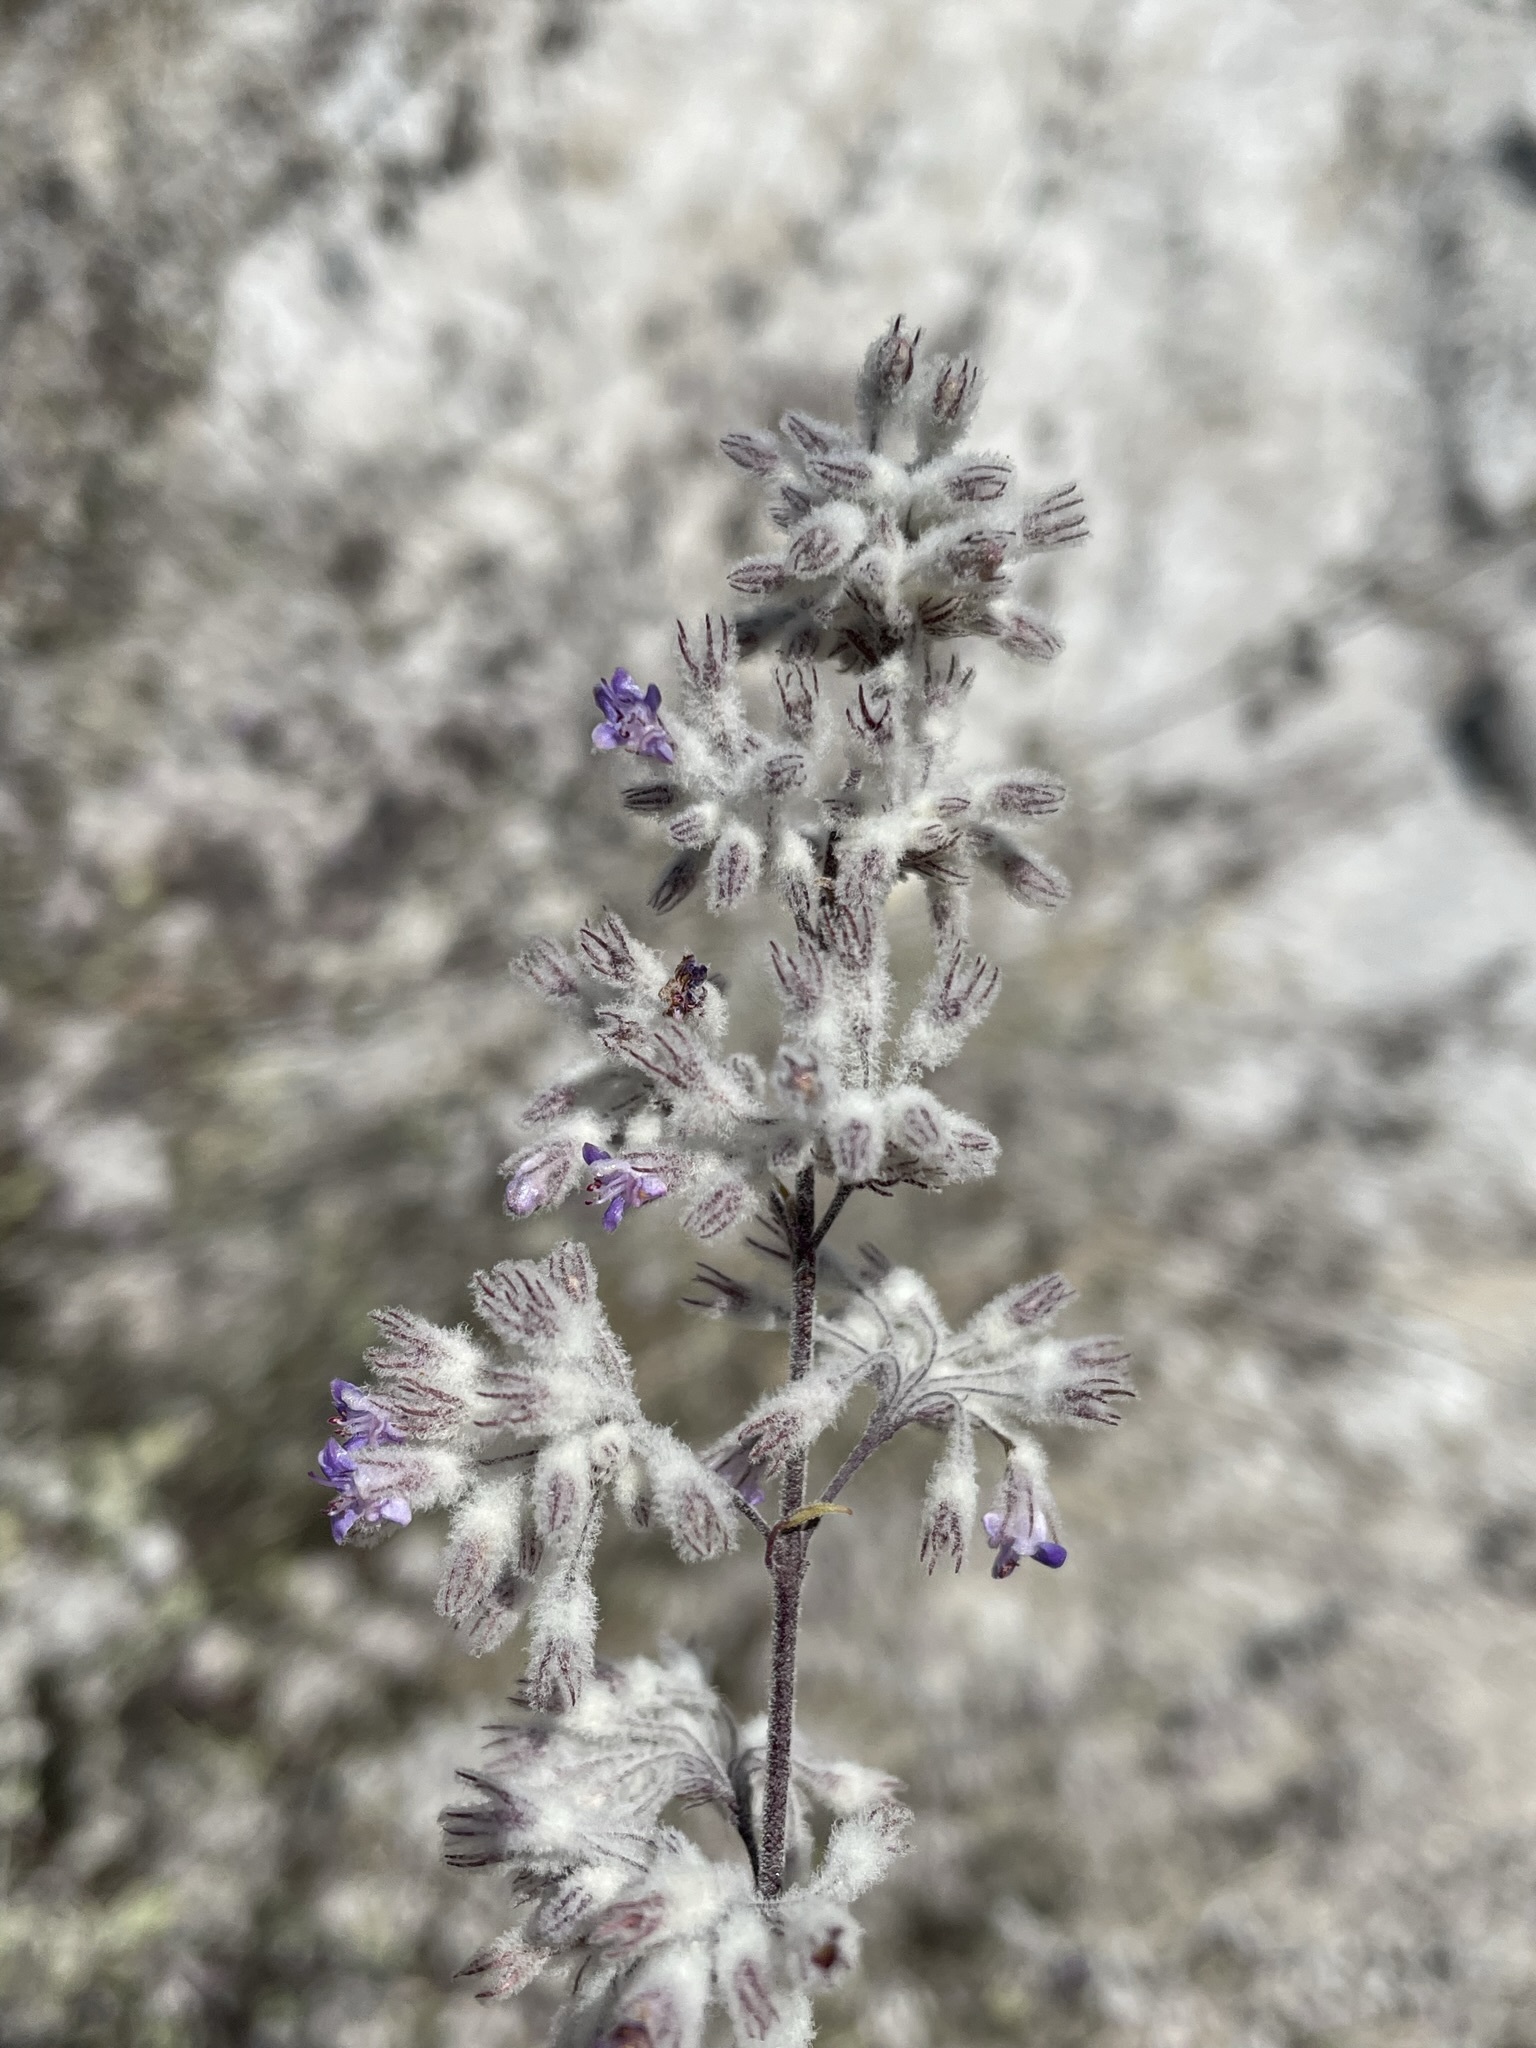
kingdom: Plantae
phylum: Tracheophyta
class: Magnoliopsida
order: Lamiales
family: Lamiaceae
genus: Condea
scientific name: Condea emoryi
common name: Chia
